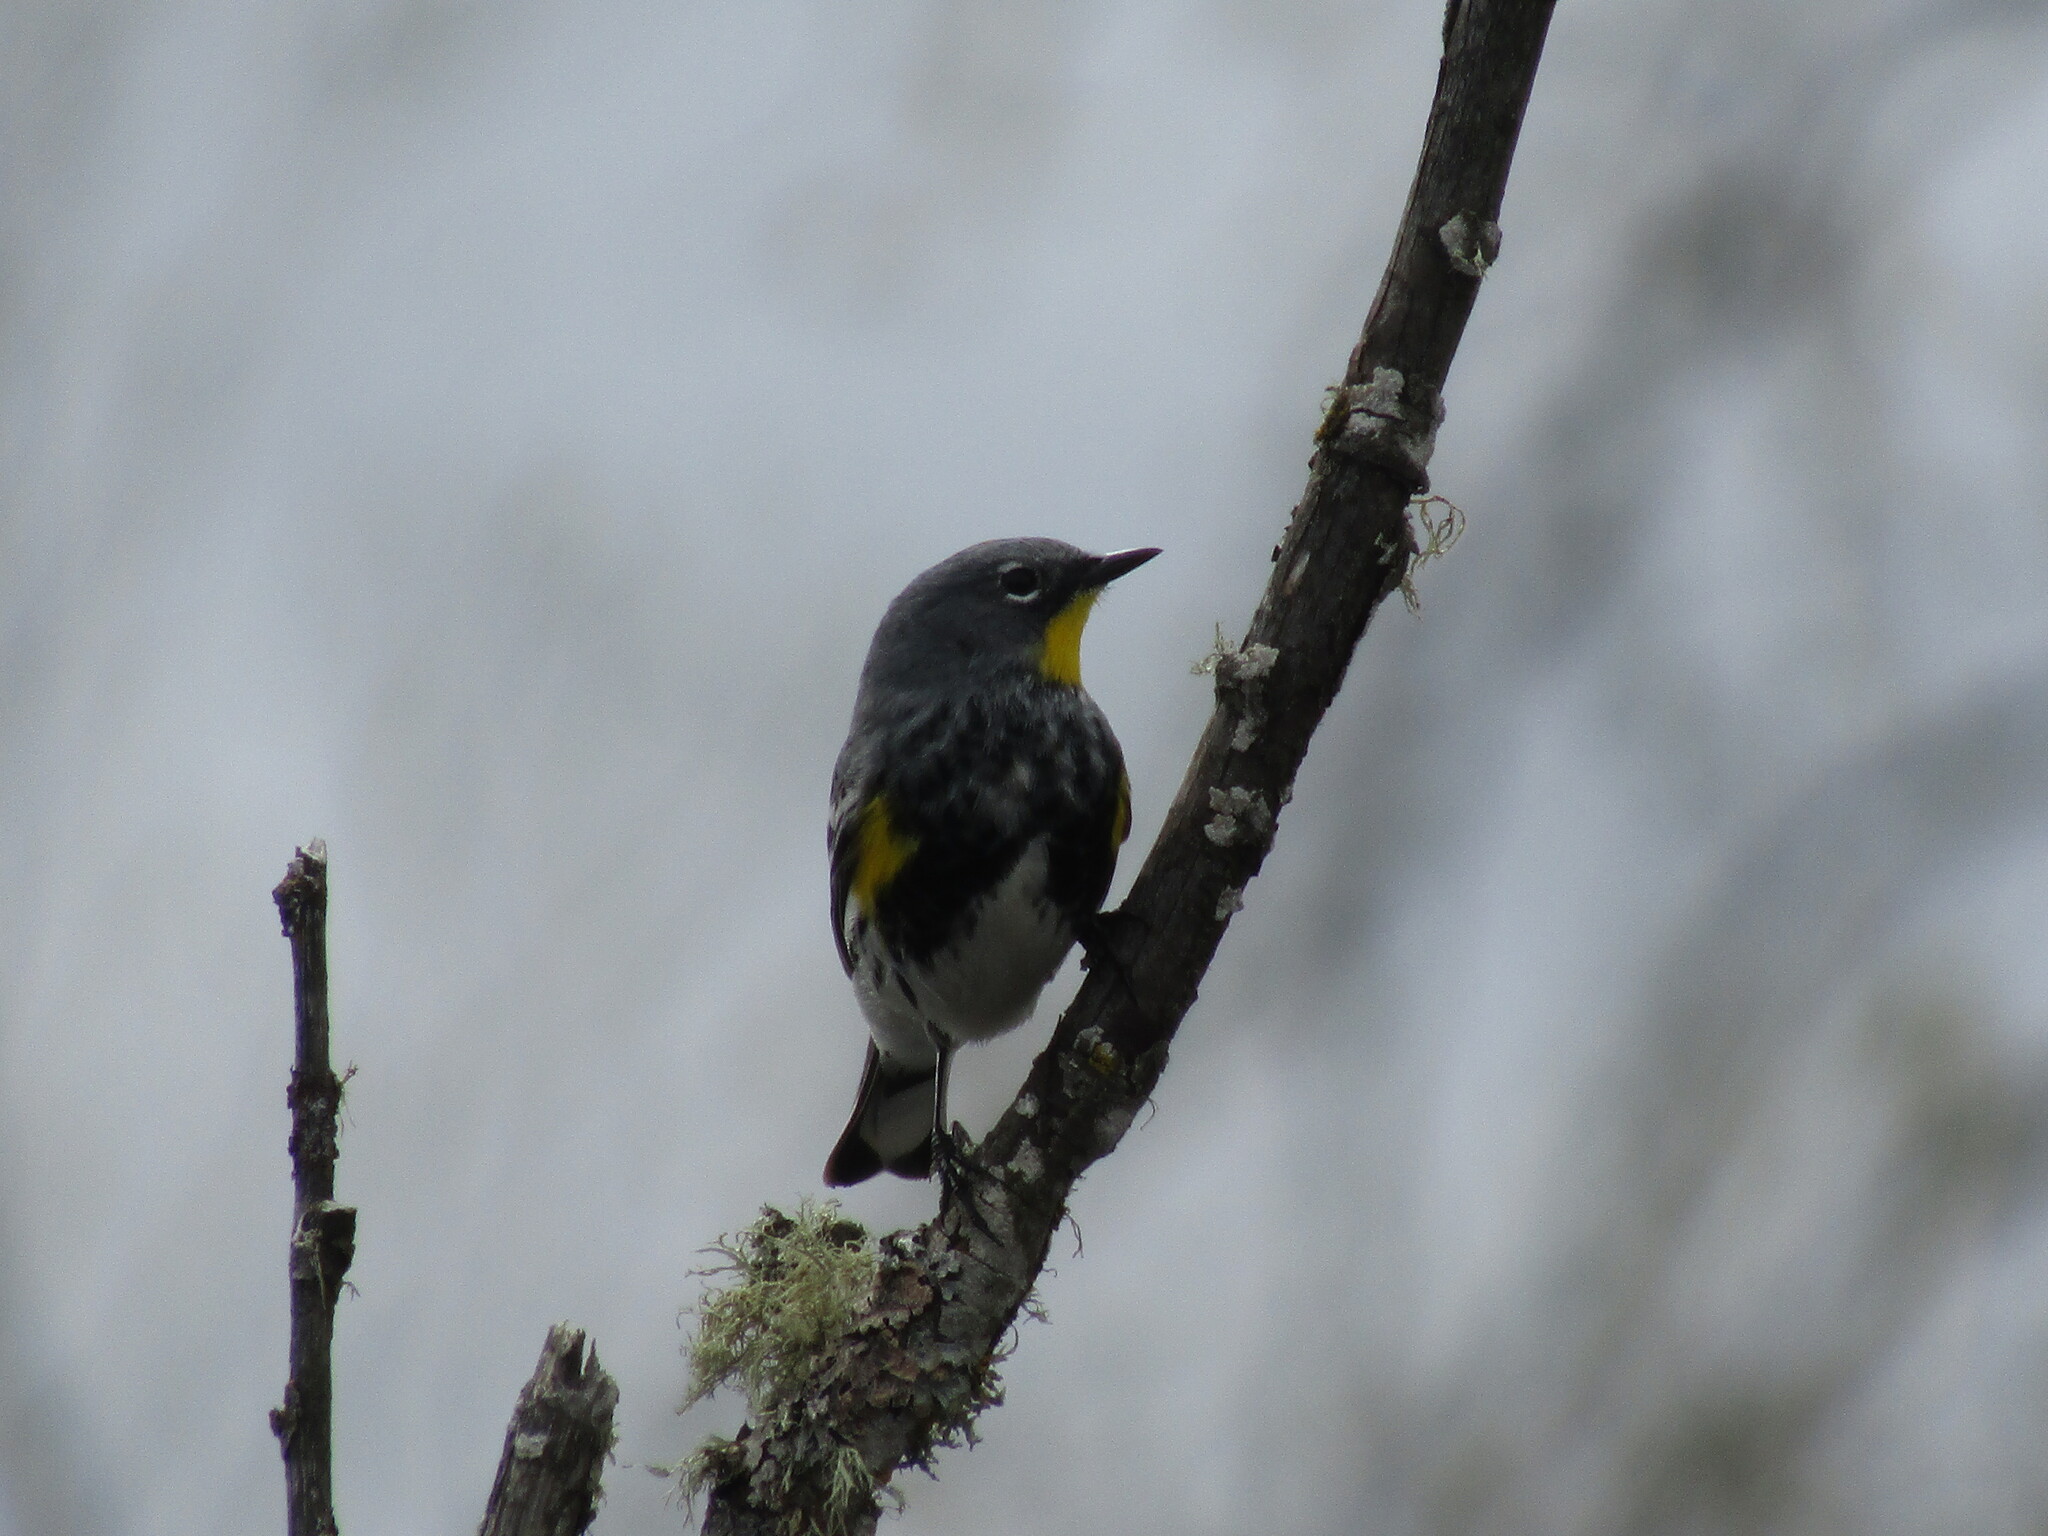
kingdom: Animalia
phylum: Chordata
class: Aves
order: Passeriformes
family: Parulidae
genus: Setophaga
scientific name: Setophaga coronata
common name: Myrtle warbler
